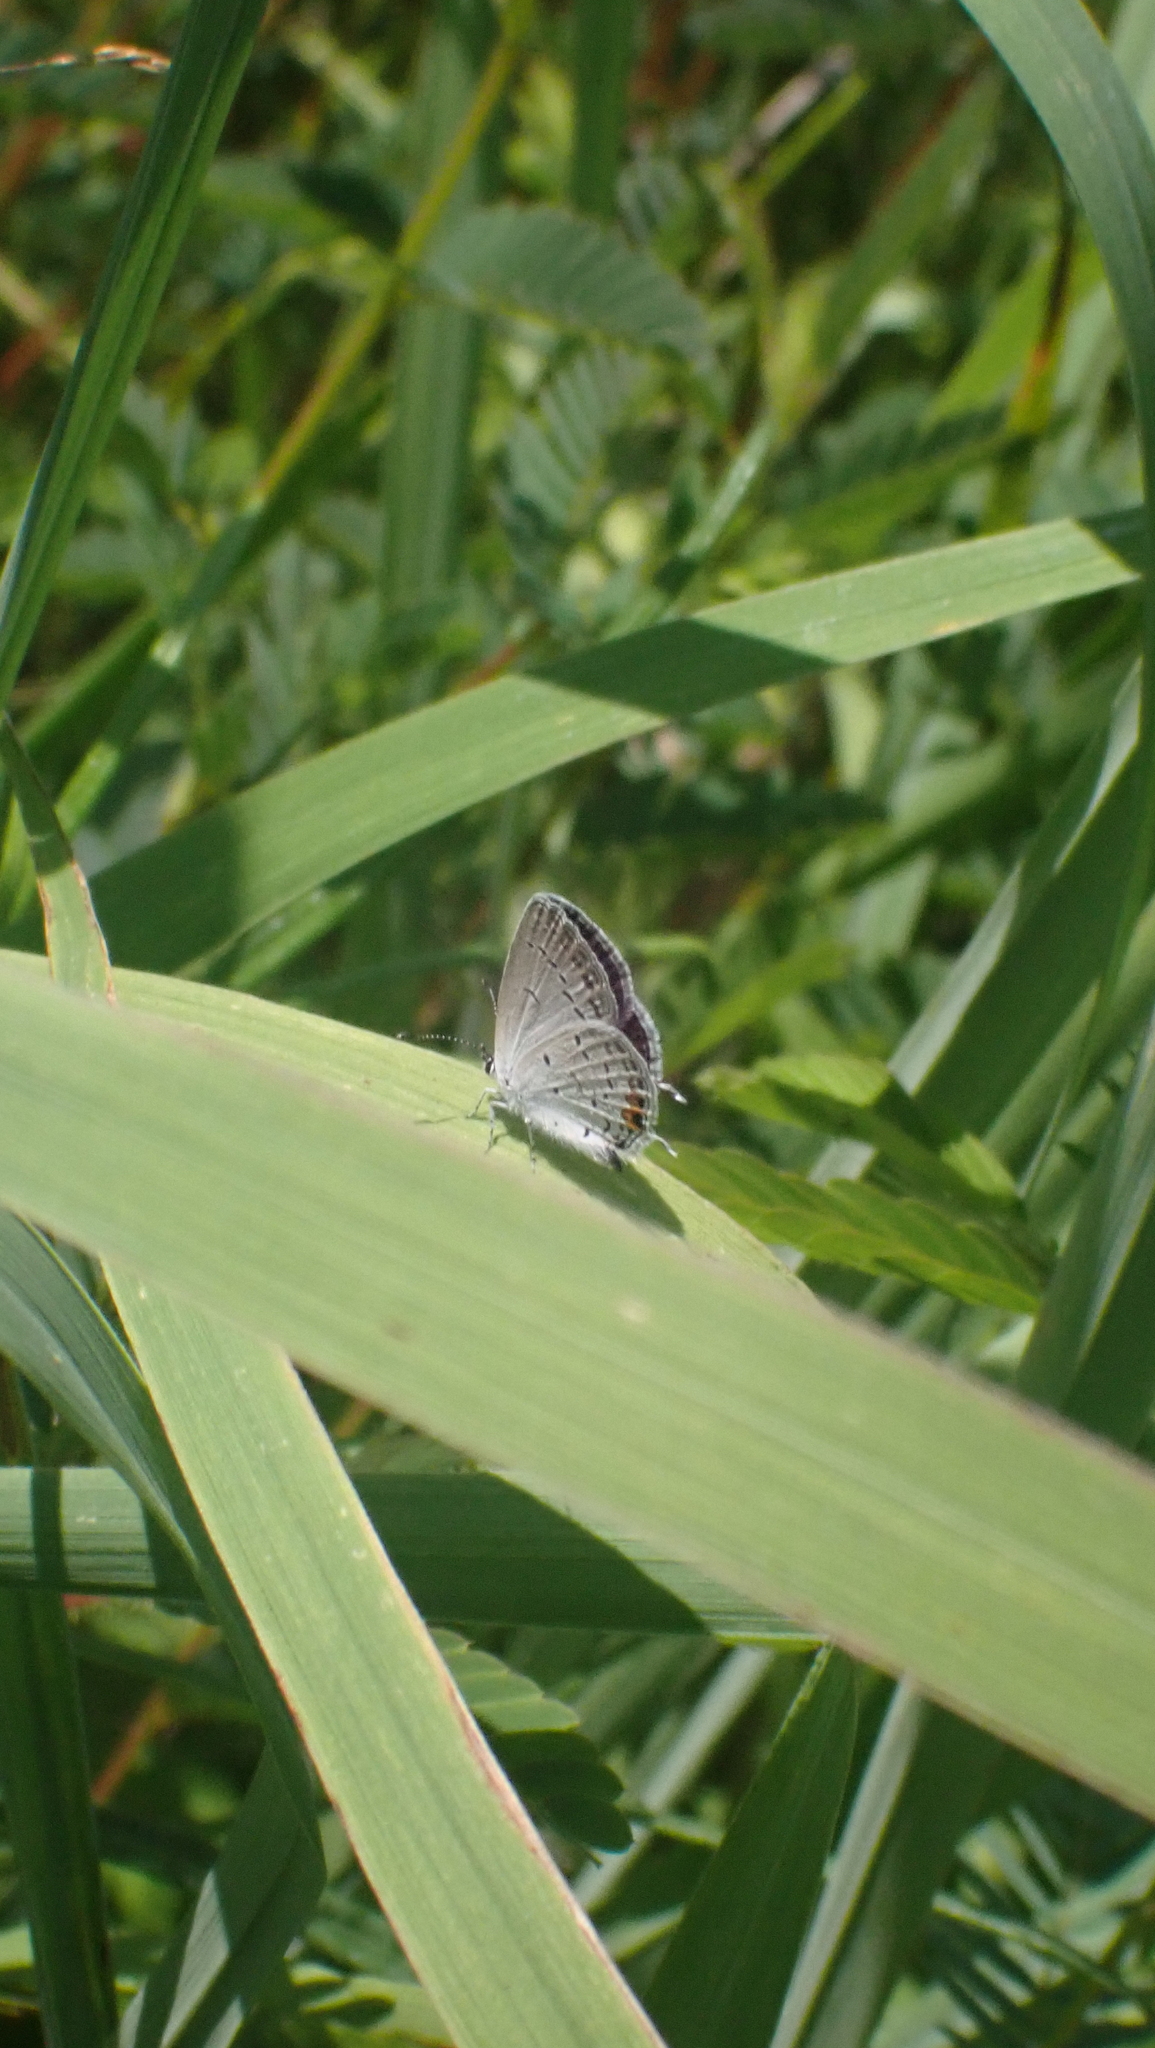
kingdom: Animalia
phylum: Arthropoda
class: Insecta
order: Lepidoptera
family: Lycaenidae
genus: Elkalyce
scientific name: Elkalyce comyntas
